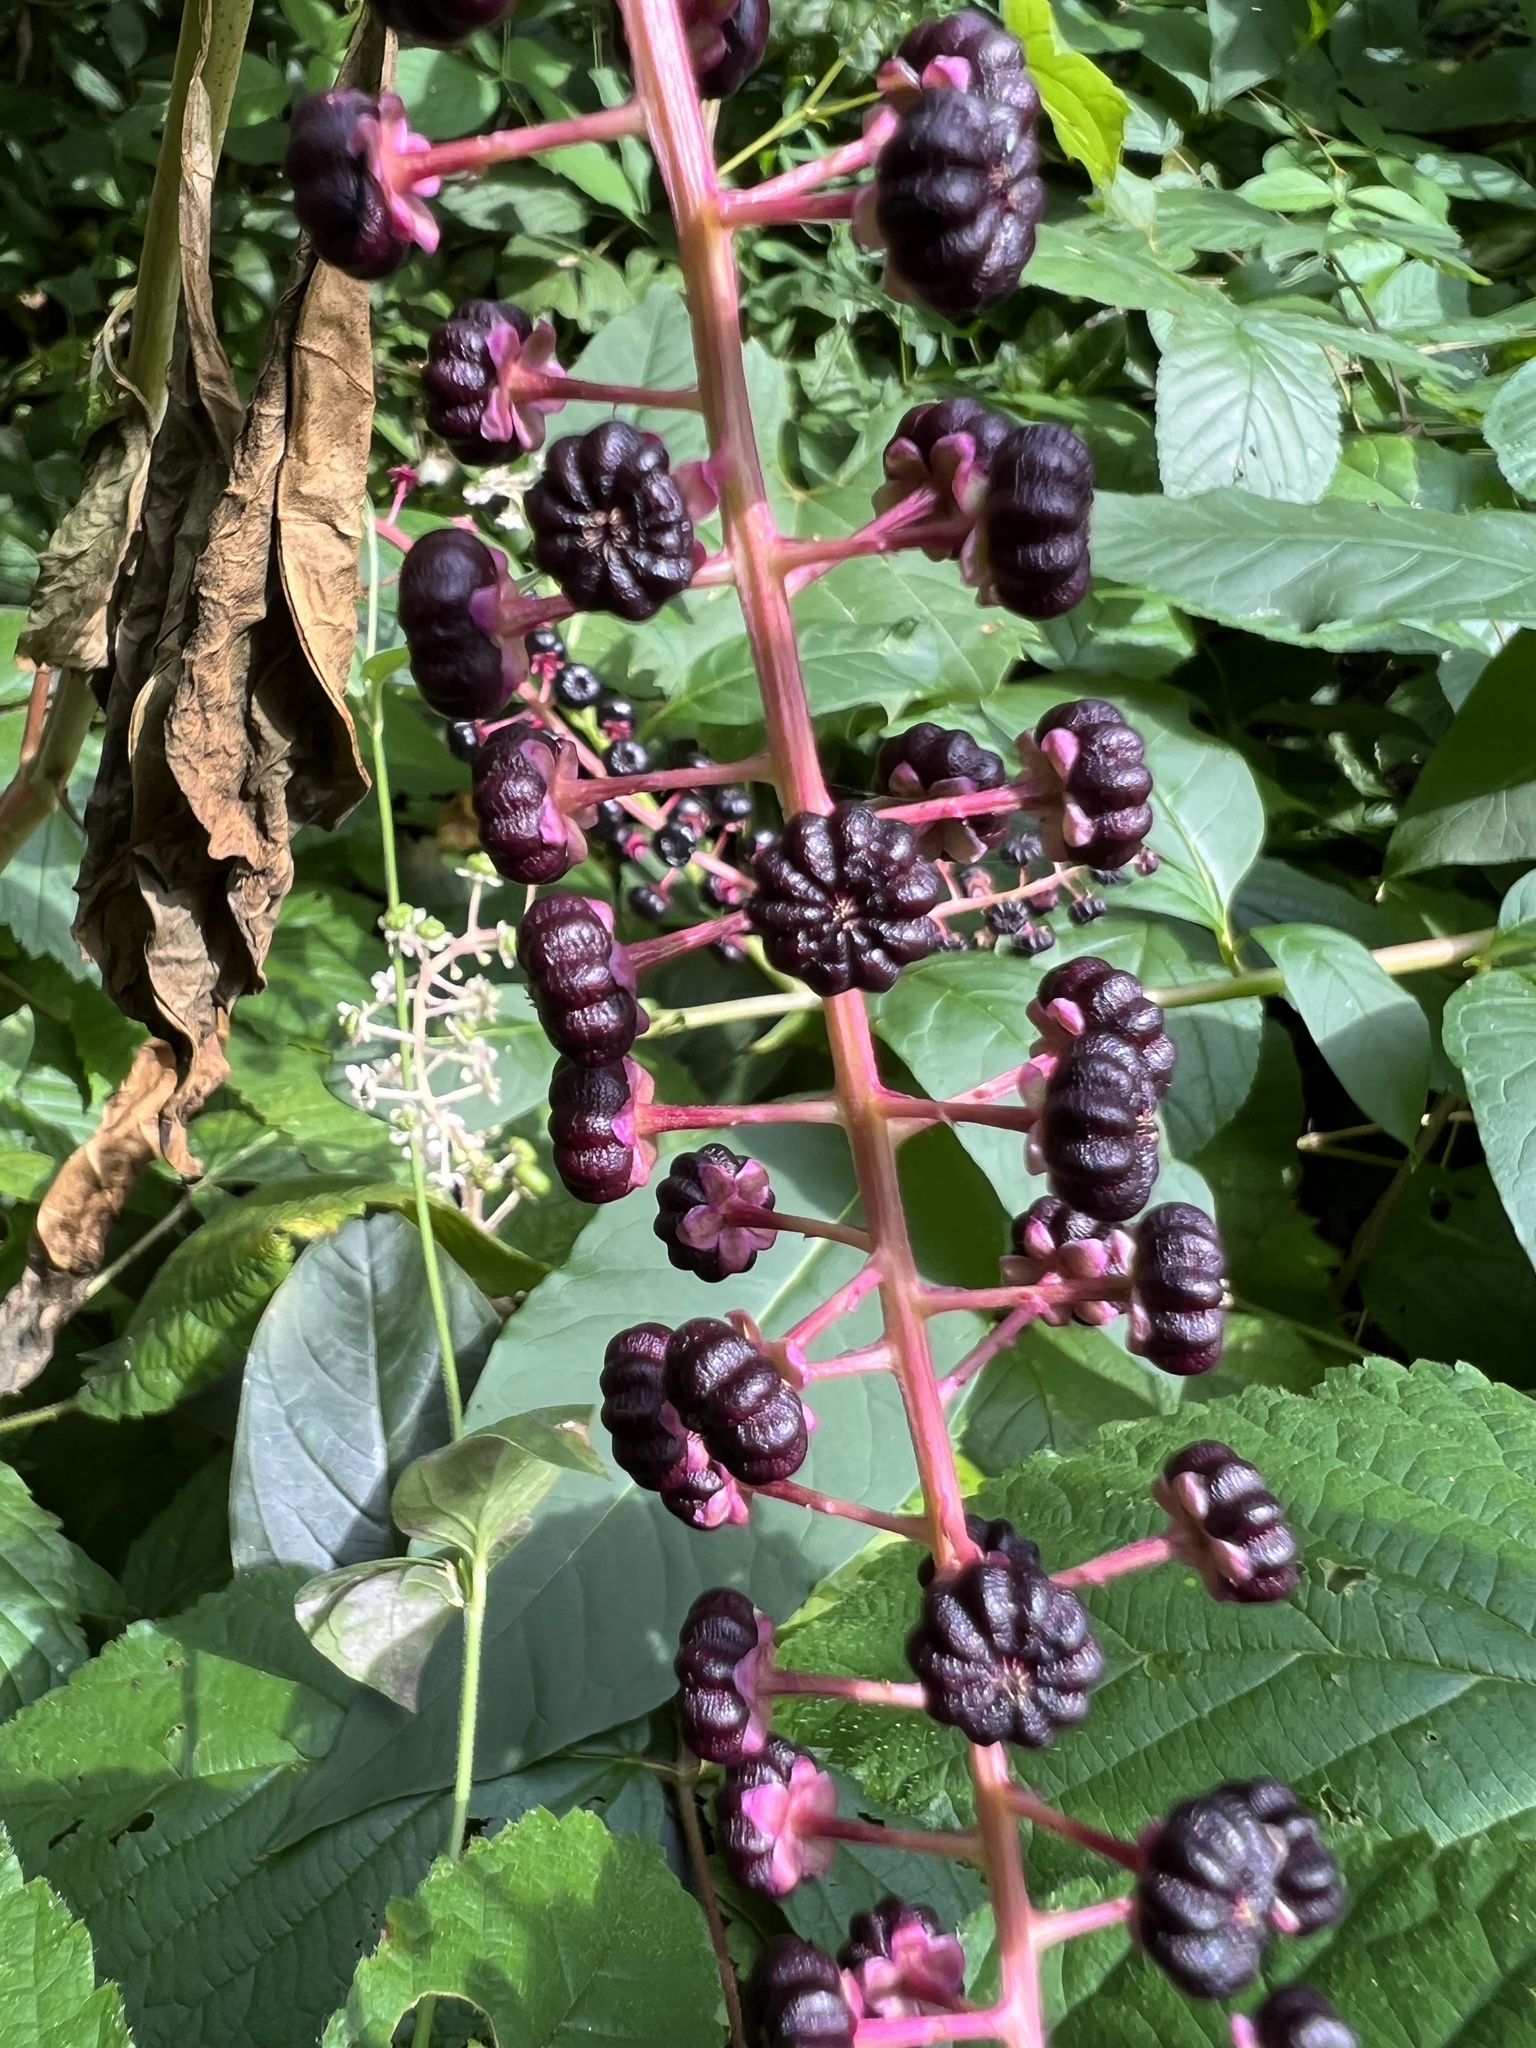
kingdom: Plantae
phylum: Tracheophyta
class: Magnoliopsida
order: Caryophyllales
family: Phytolaccaceae
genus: Phytolacca
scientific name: Phytolacca americana
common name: American pokeweed
